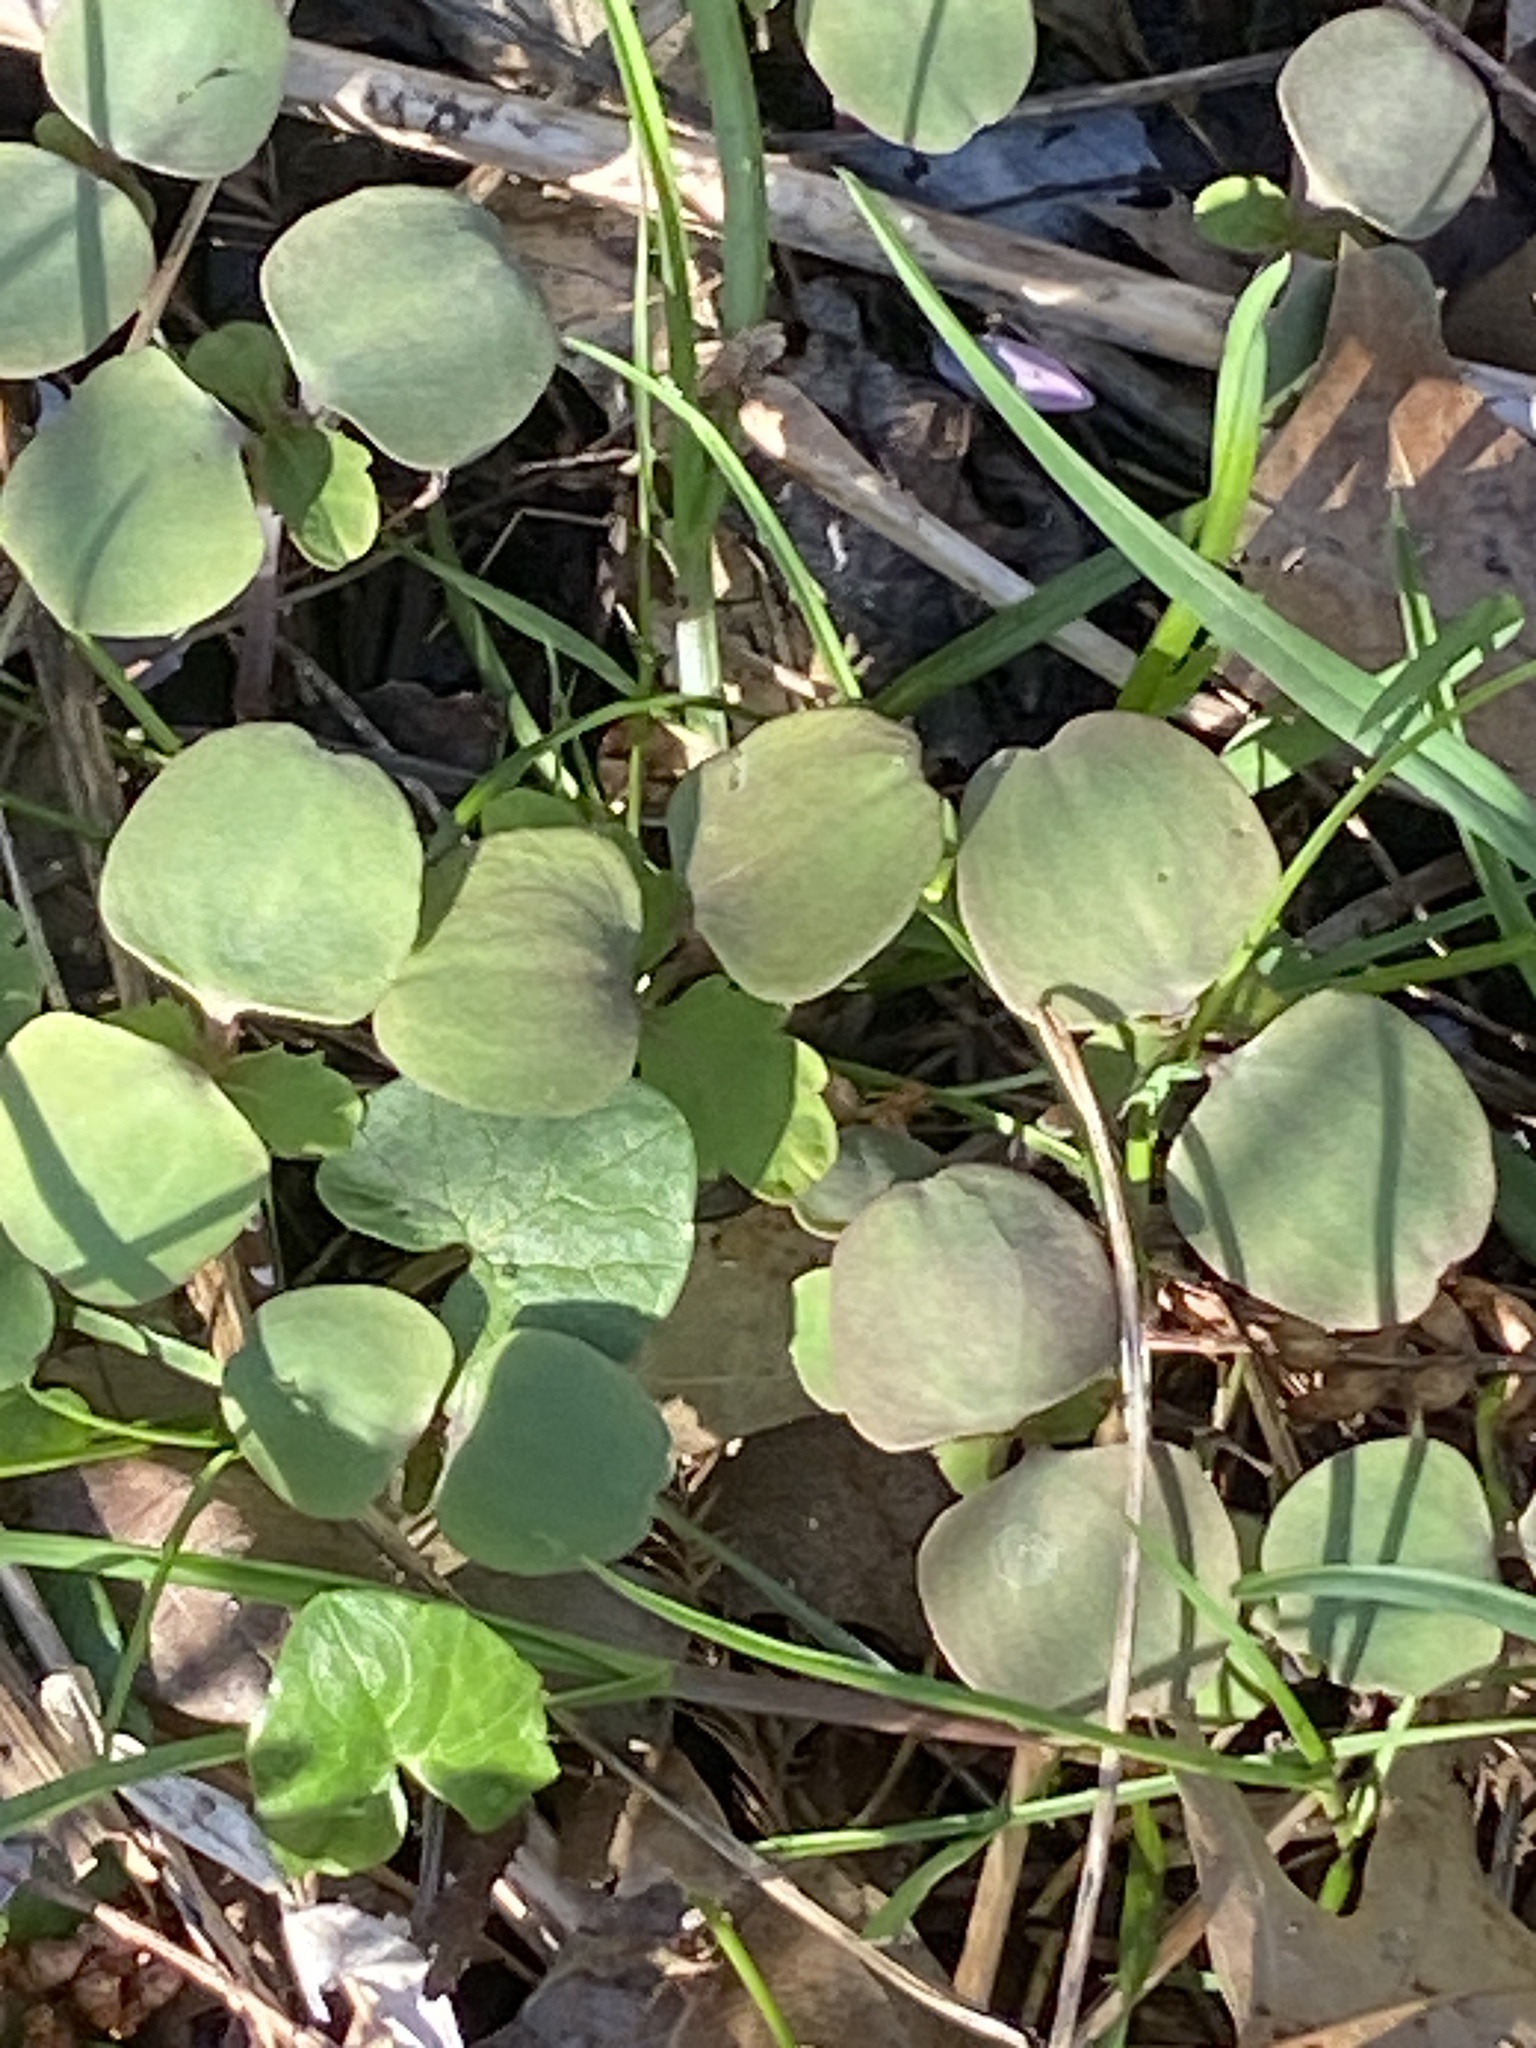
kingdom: Plantae
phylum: Tracheophyta
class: Magnoliopsida
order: Ericales
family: Balsaminaceae
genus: Impatiens
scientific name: Impatiens capensis
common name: Orange balsam
